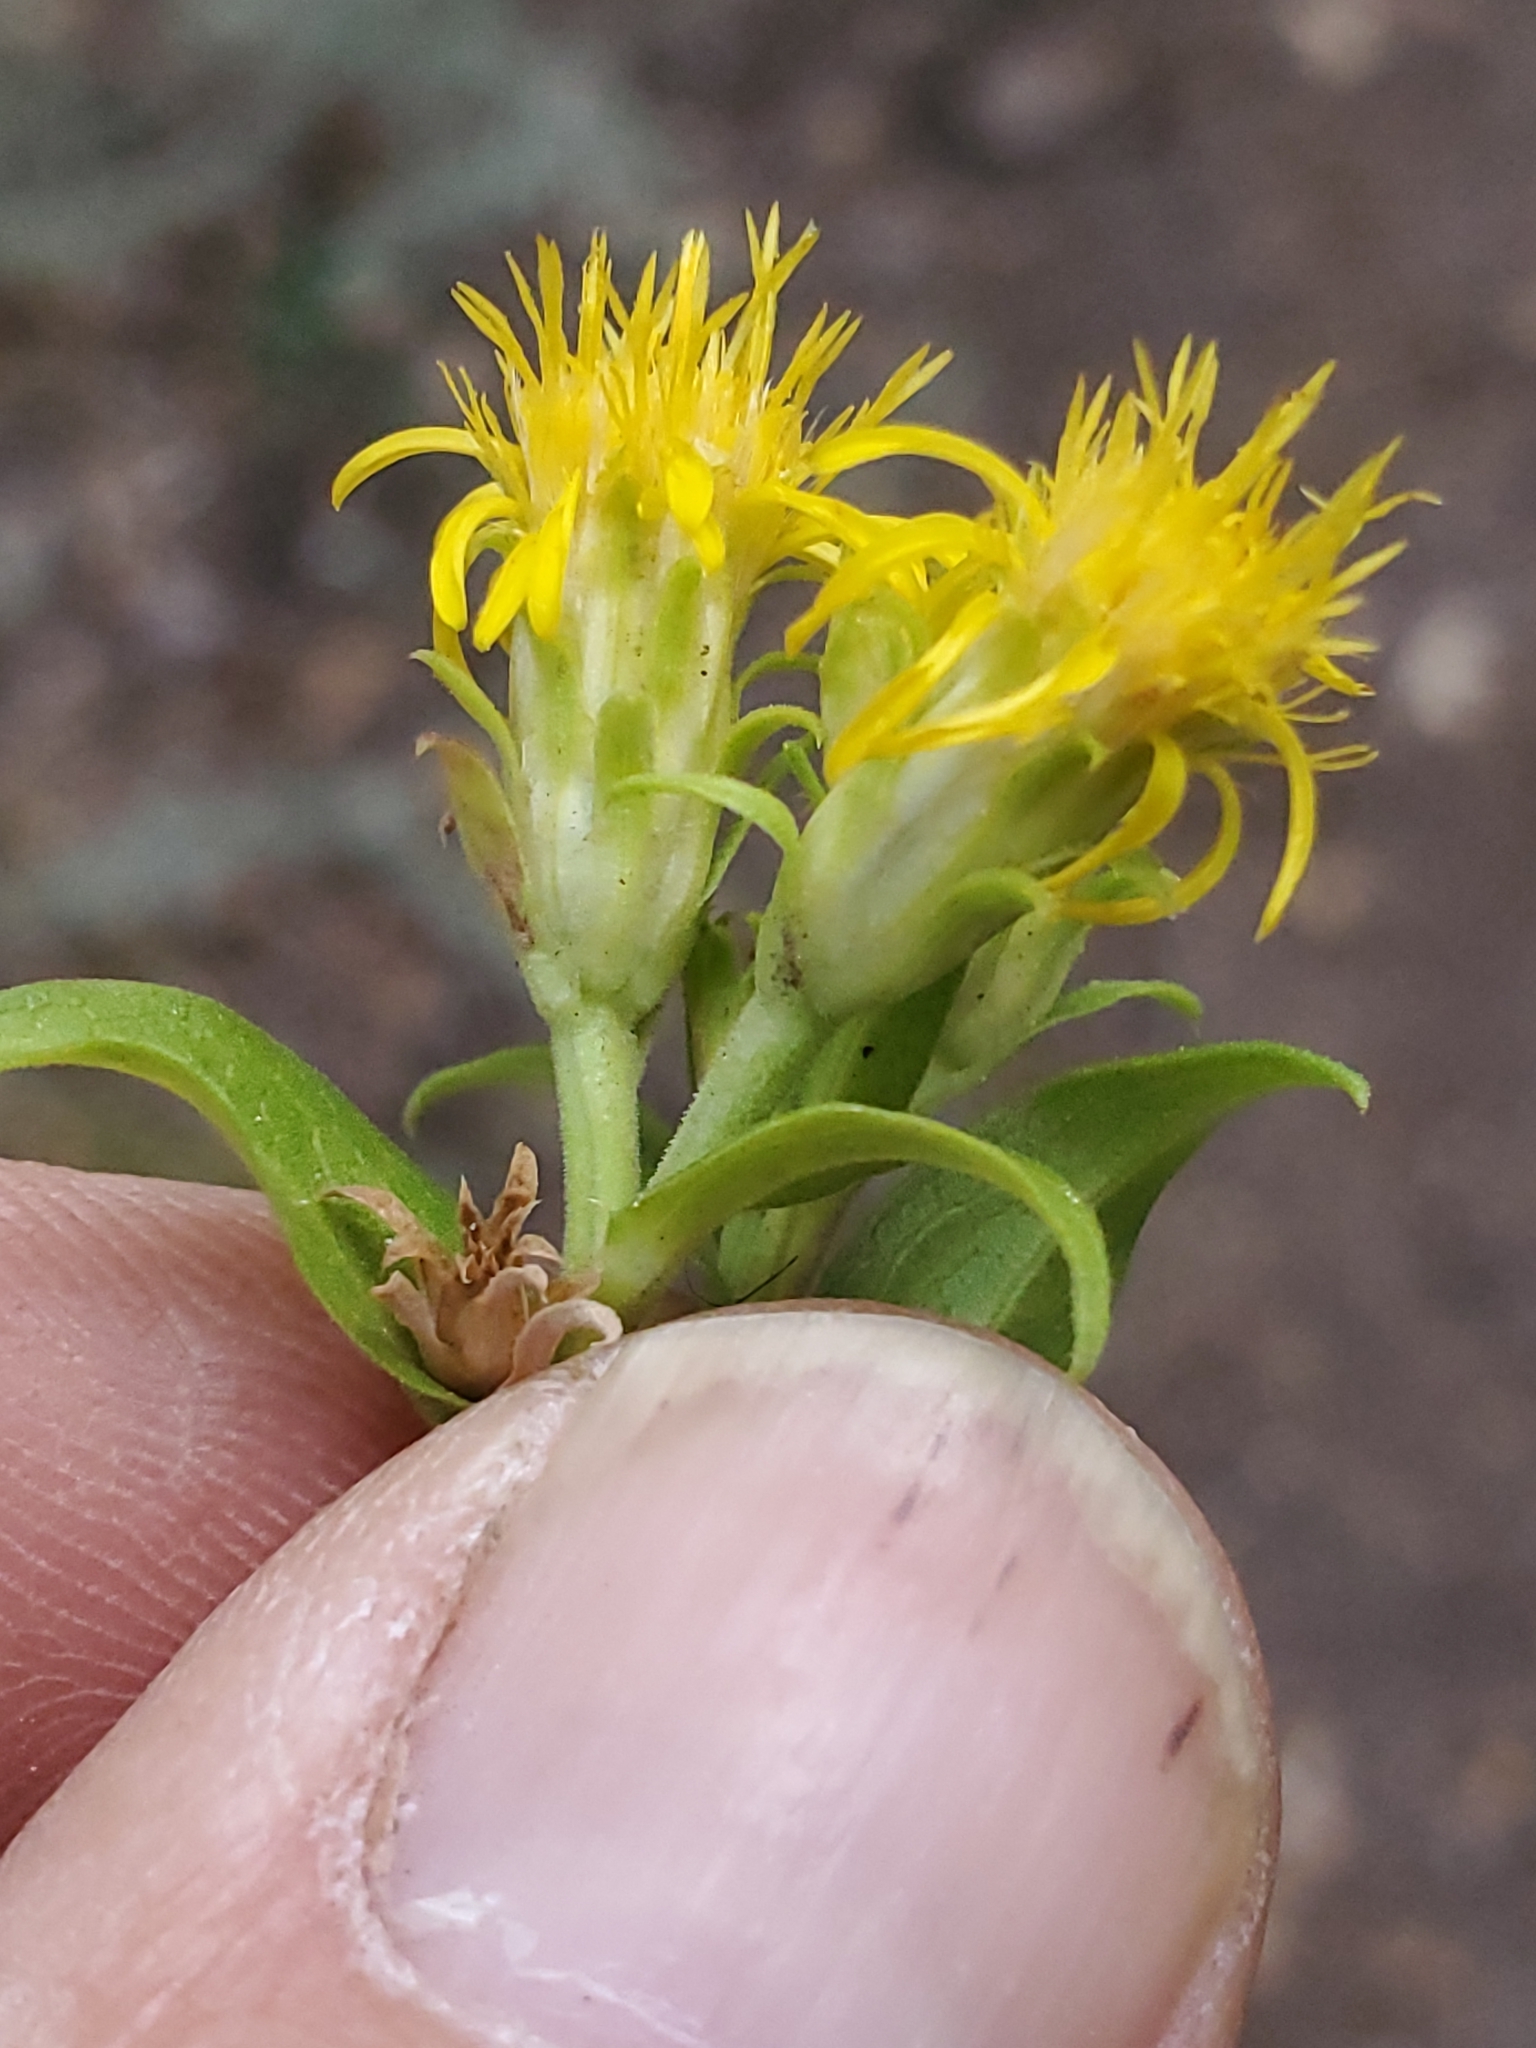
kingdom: Plantae
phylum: Tracheophyta
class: Magnoliopsida
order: Asterales
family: Asteraceae
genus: Oreochrysum
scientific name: Oreochrysum parryi
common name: Parry's goldenweed
